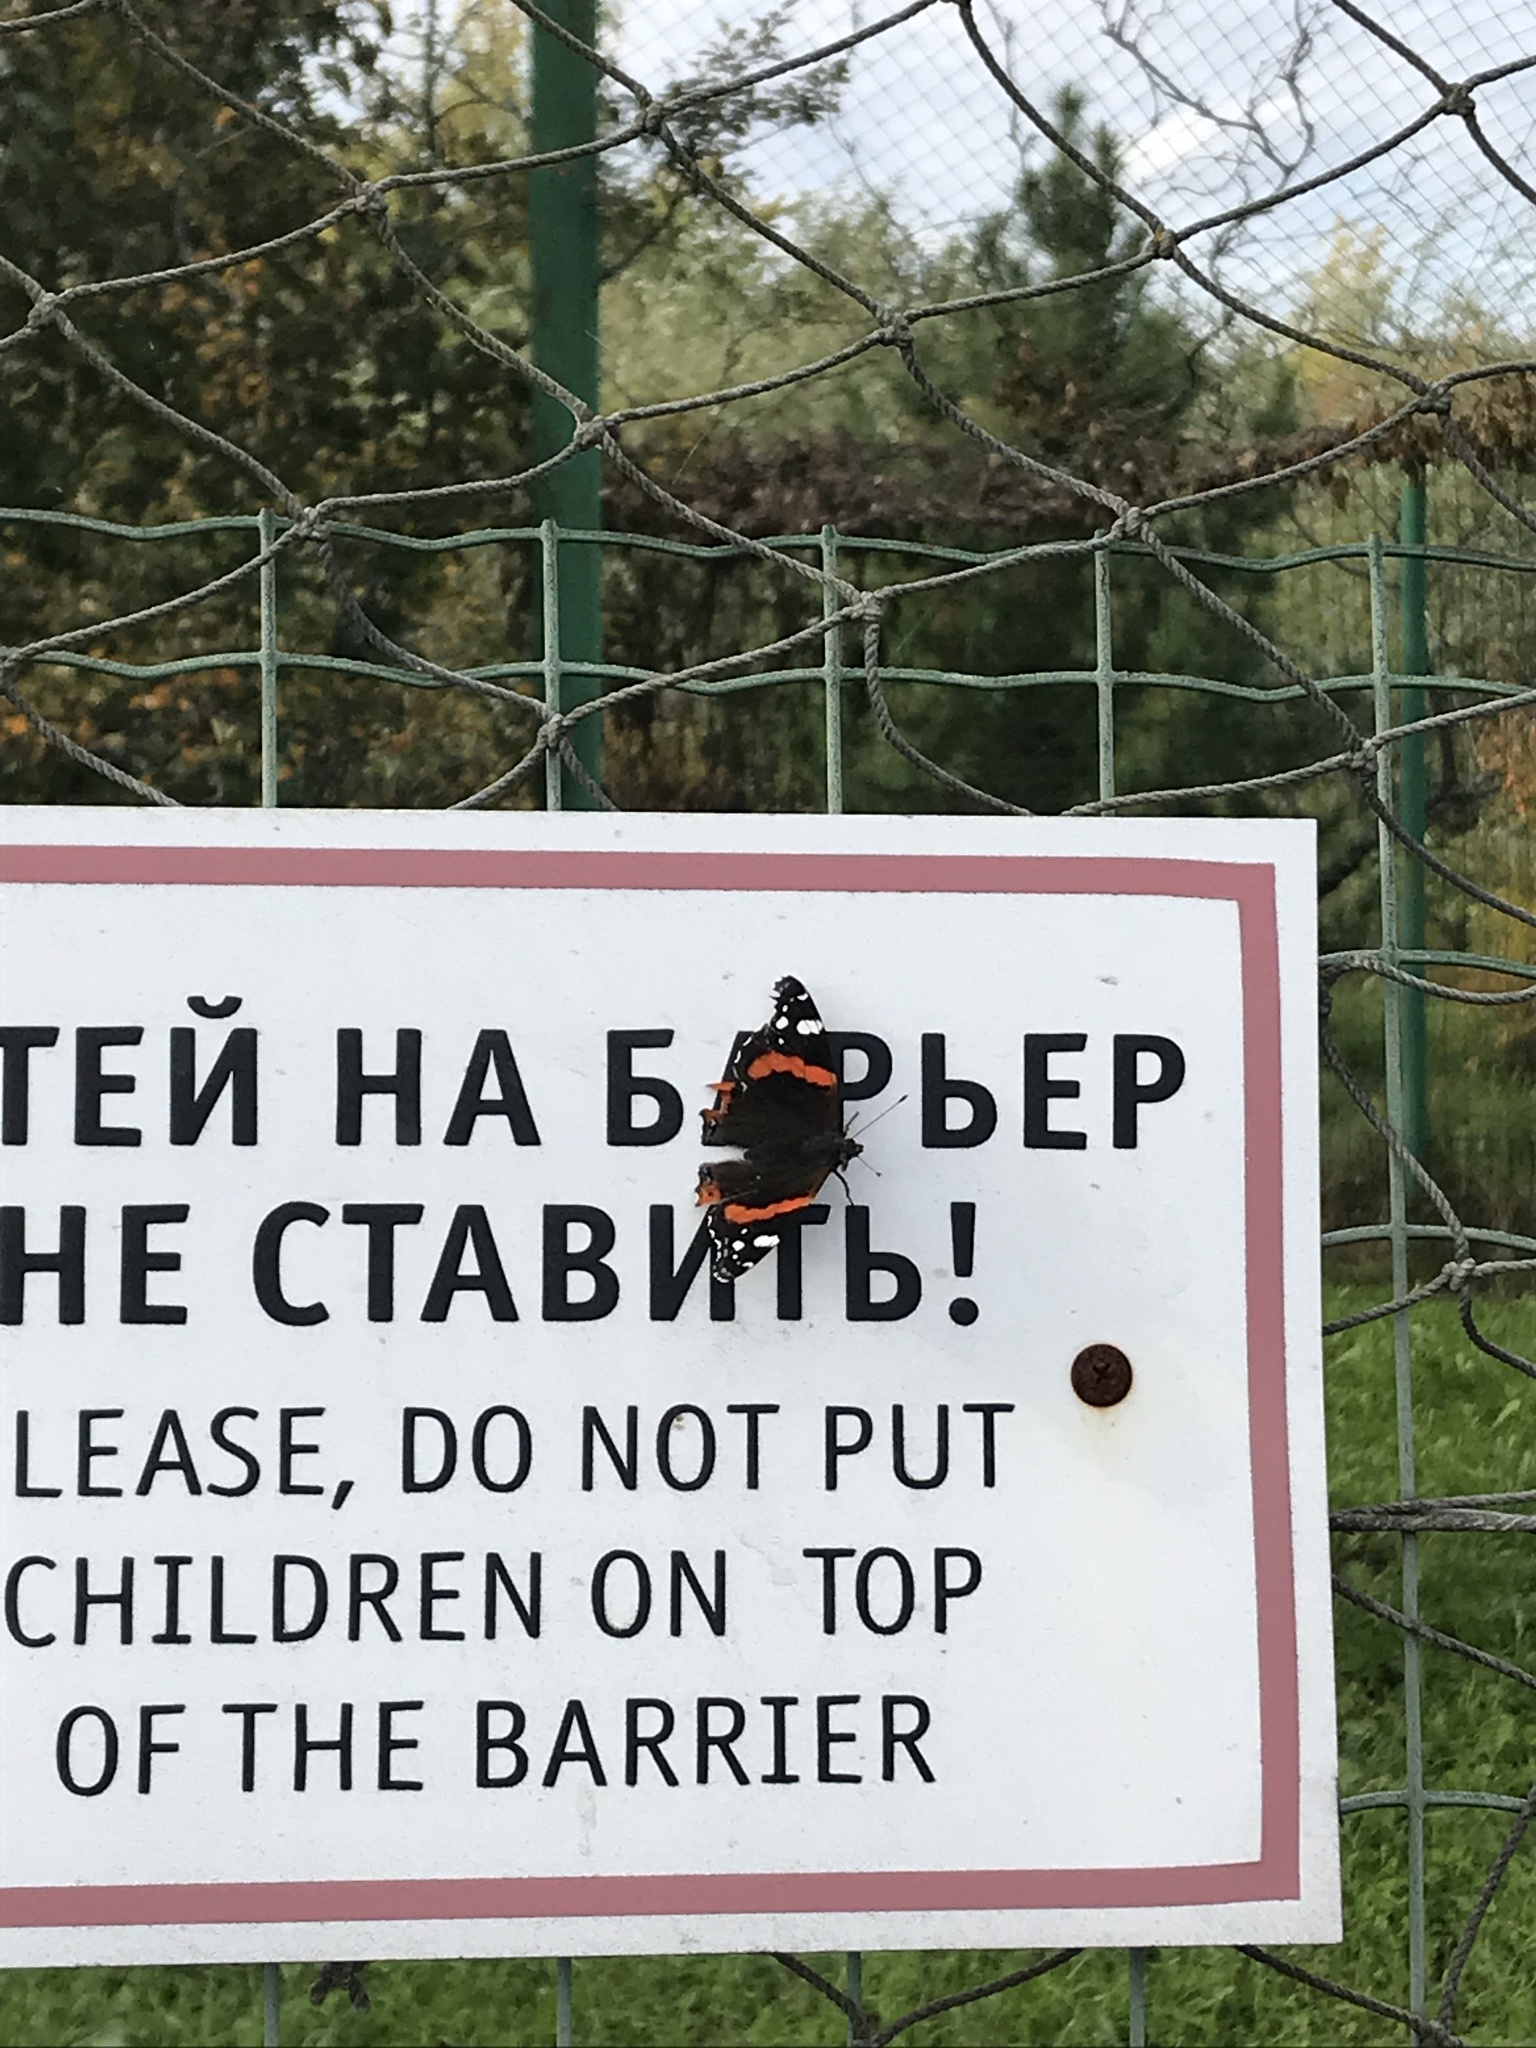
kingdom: Animalia
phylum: Arthropoda
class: Insecta
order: Lepidoptera
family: Nymphalidae
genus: Vanessa
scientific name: Vanessa atalanta
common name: Red admiral
